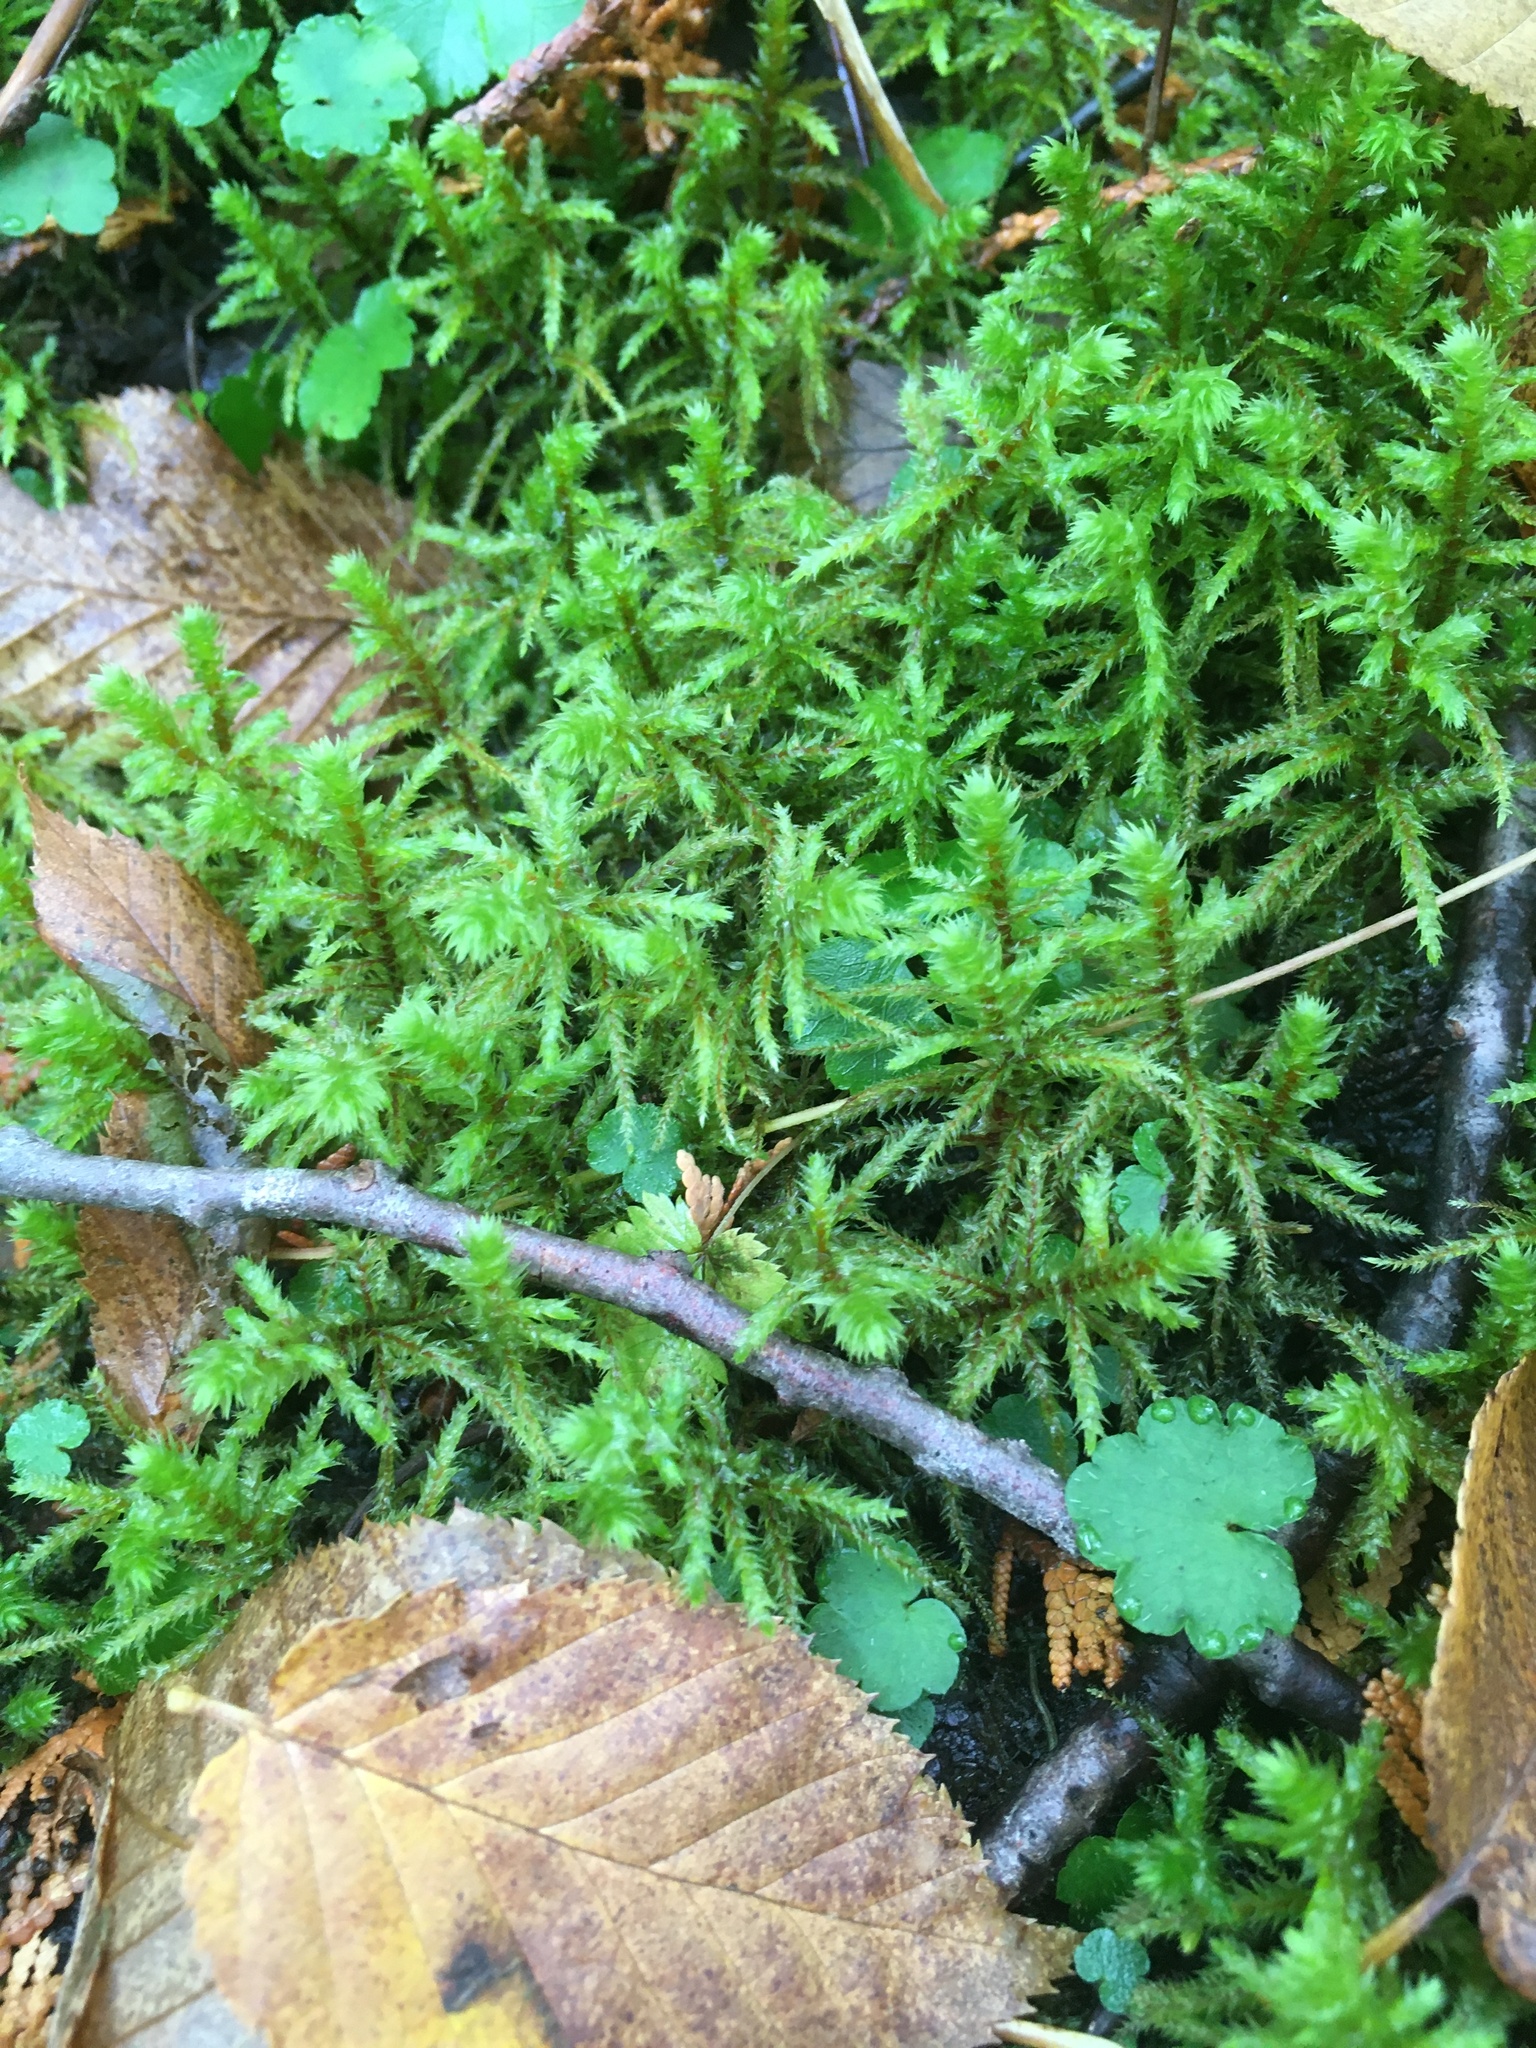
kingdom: Plantae
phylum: Bryophyta
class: Bryopsida
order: Hypnales
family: Hylocomiaceae
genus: Hylocomiadelphus
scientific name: Hylocomiadelphus triquetrus
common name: Rough goose neck moss
